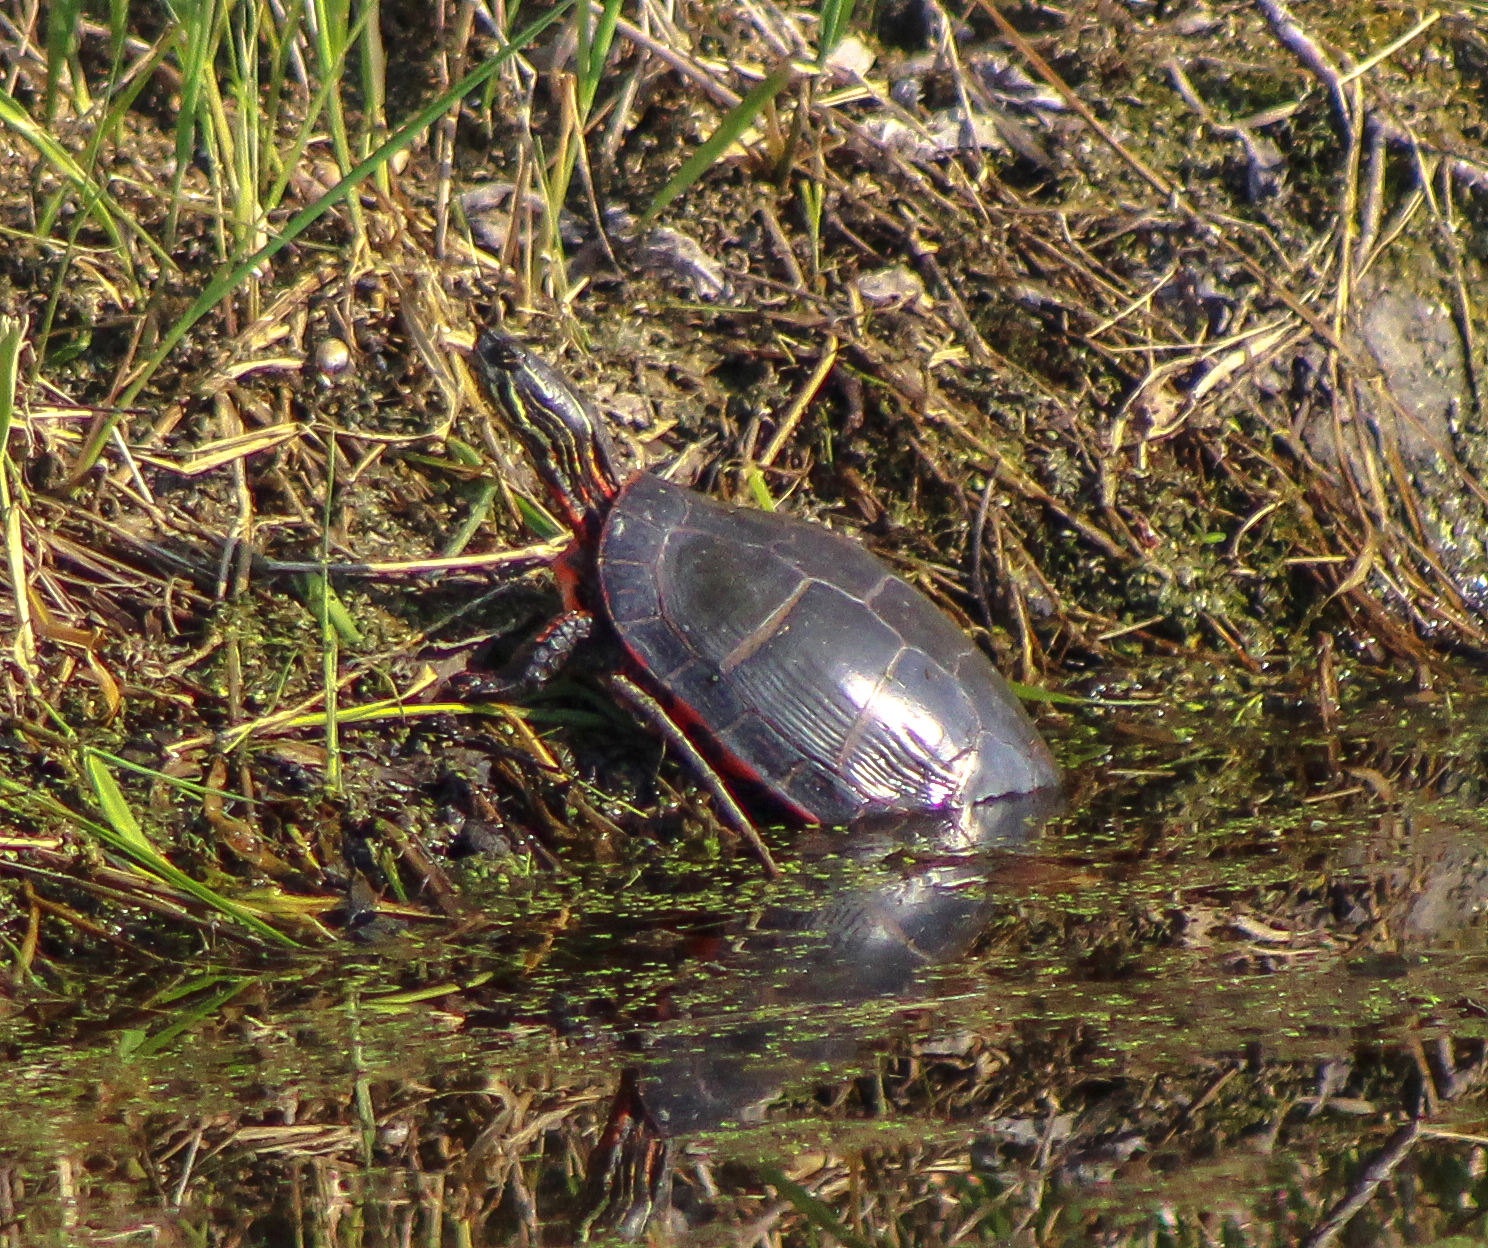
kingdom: Animalia
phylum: Chordata
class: Testudines
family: Emydidae
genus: Chrysemys
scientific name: Chrysemys picta
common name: Painted turtle
